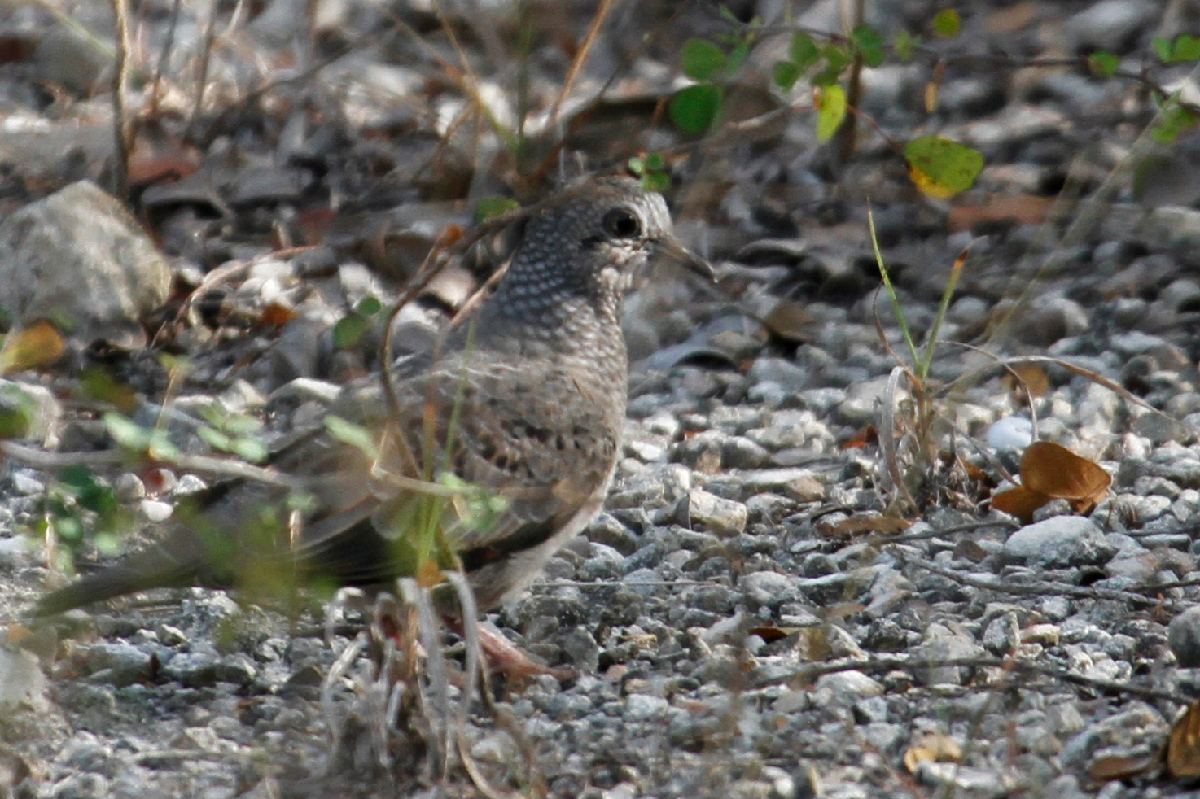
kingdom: Animalia
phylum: Chordata
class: Aves
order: Columbiformes
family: Columbidae
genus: Columbina
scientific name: Columbina passerina
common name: Common ground-dove
